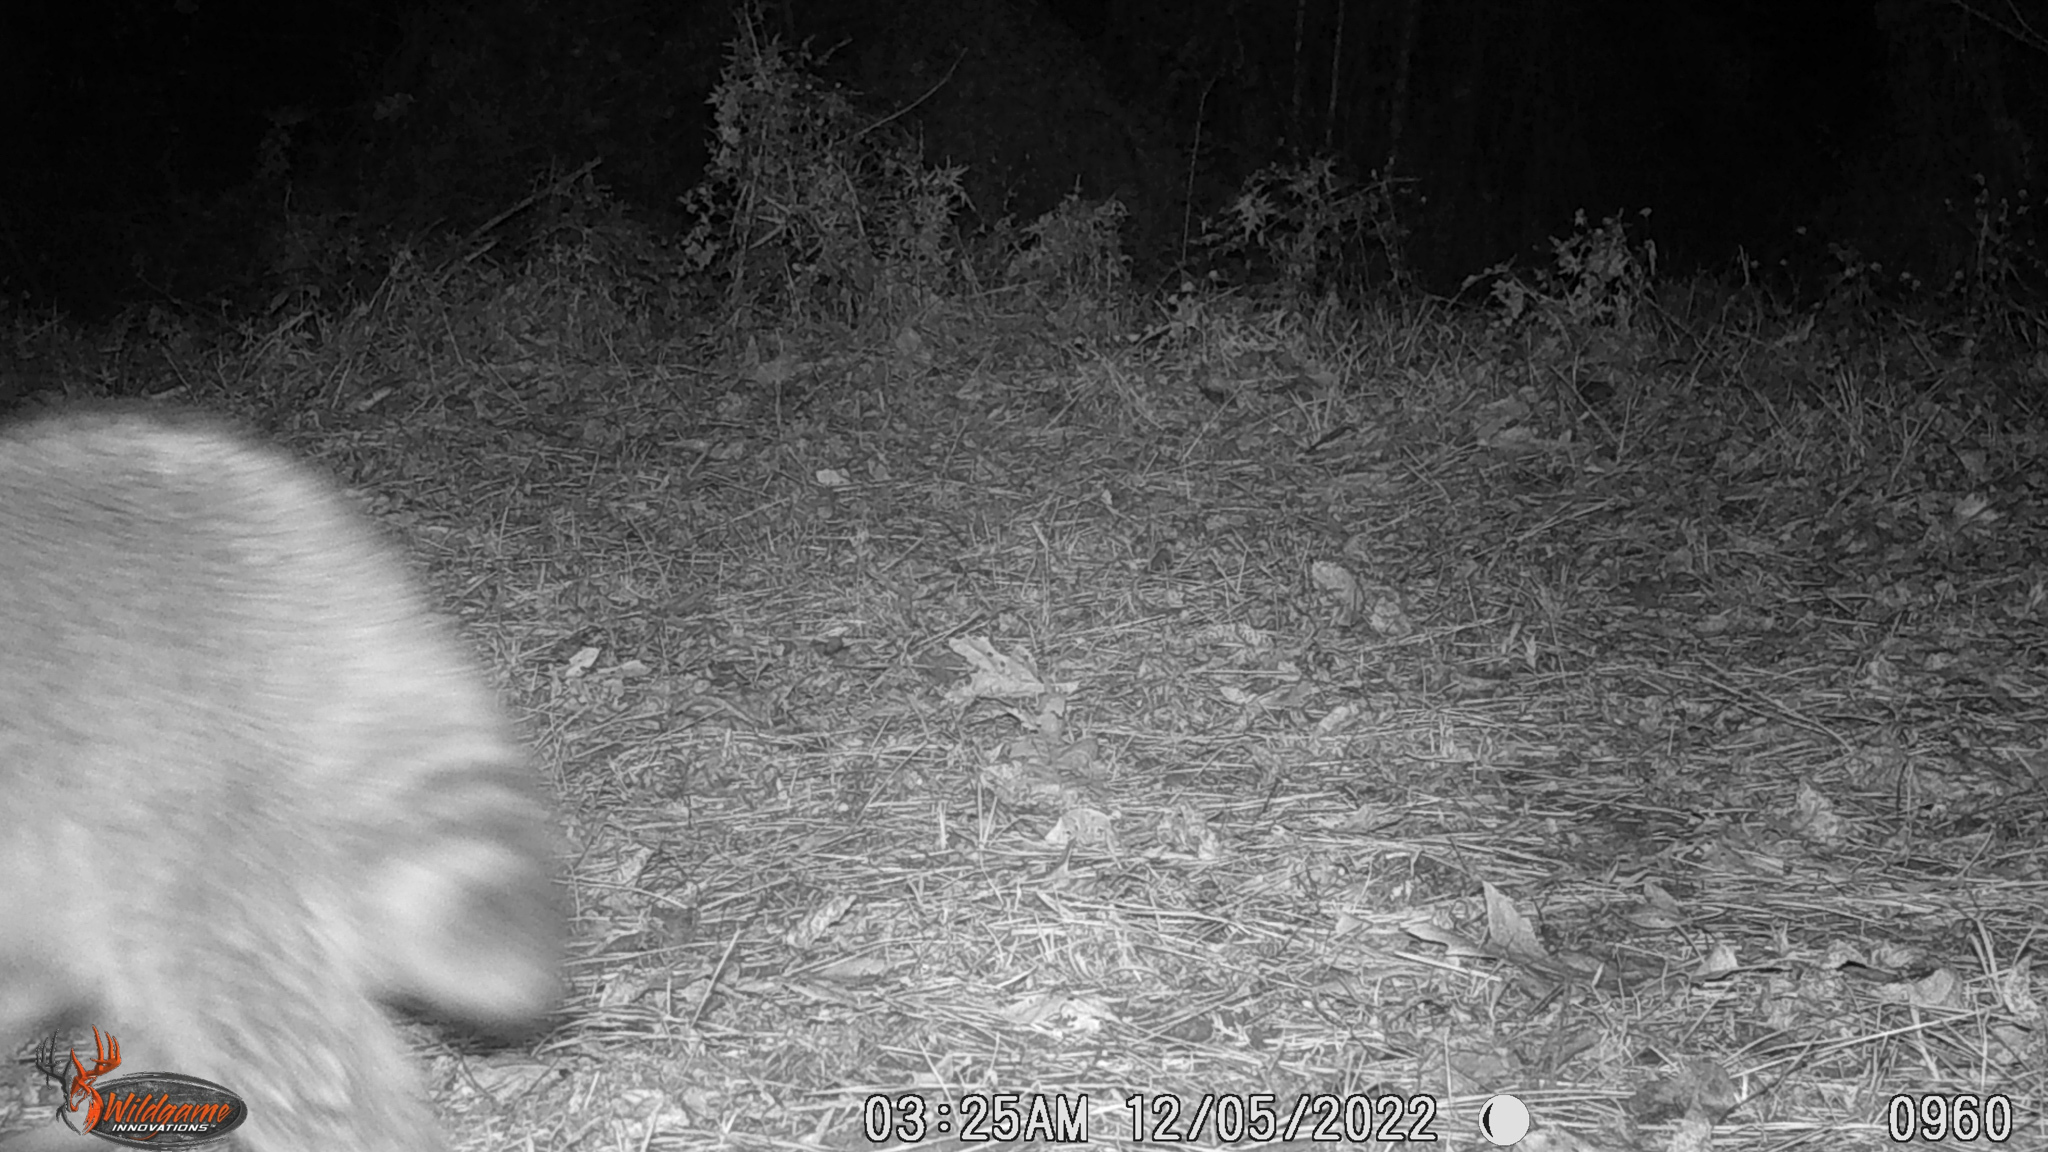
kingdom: Animalia
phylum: Chordata
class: Mammalia
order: Carnivora
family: Procyonidae
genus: Procyon
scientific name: Procyon lotor
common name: Raccoon
